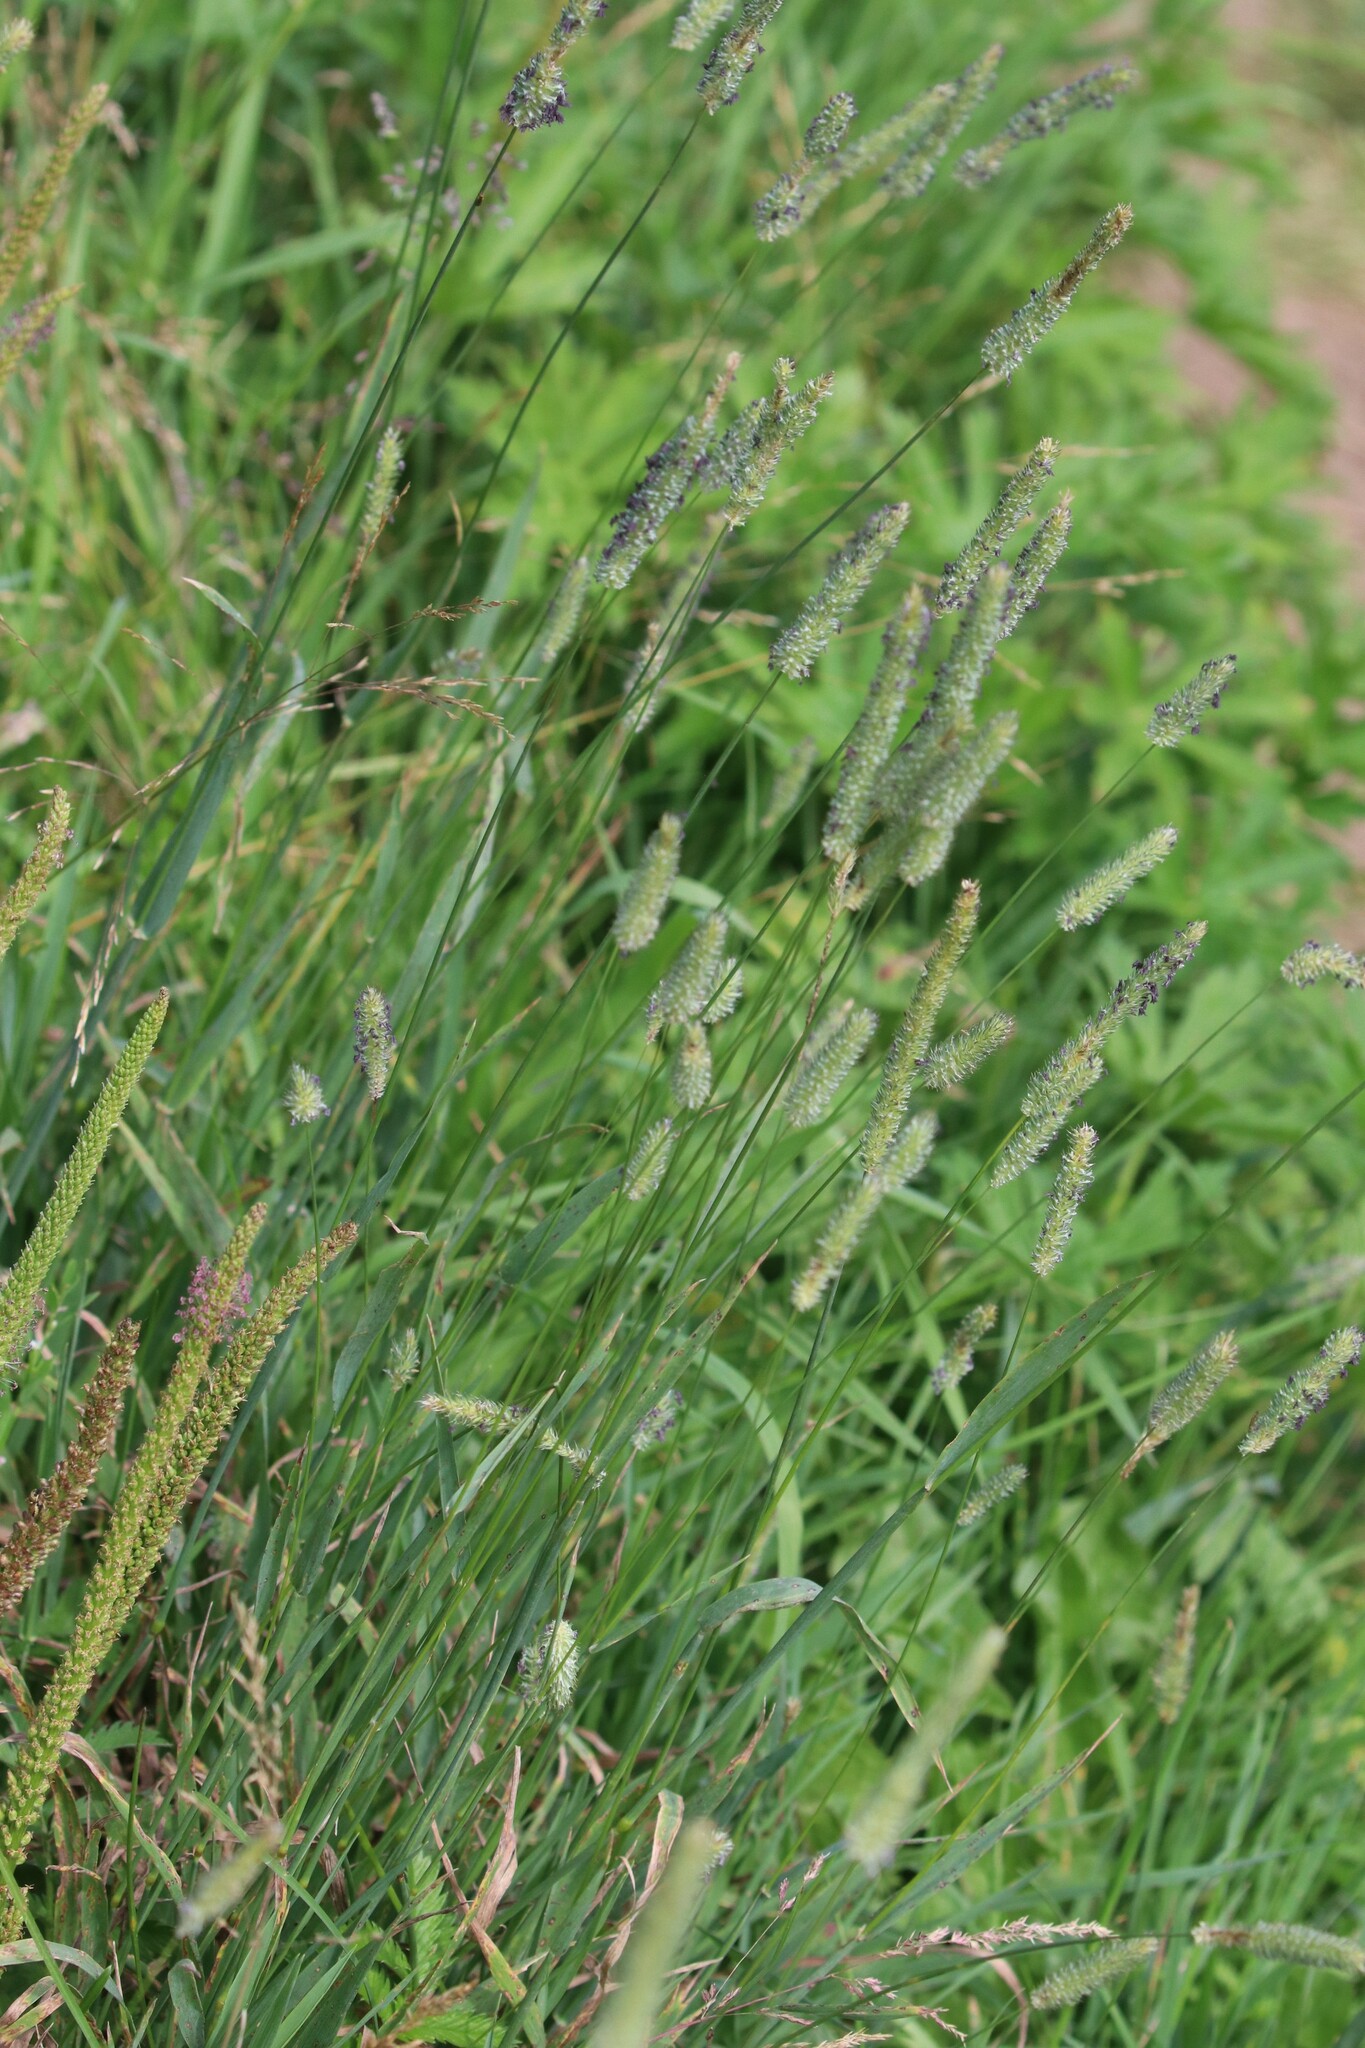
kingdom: Plantae
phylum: Tracheophyta
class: Liliopsida
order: Poales
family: Poaceae
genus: Phleum
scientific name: Phleum pratense
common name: Timothy grass
